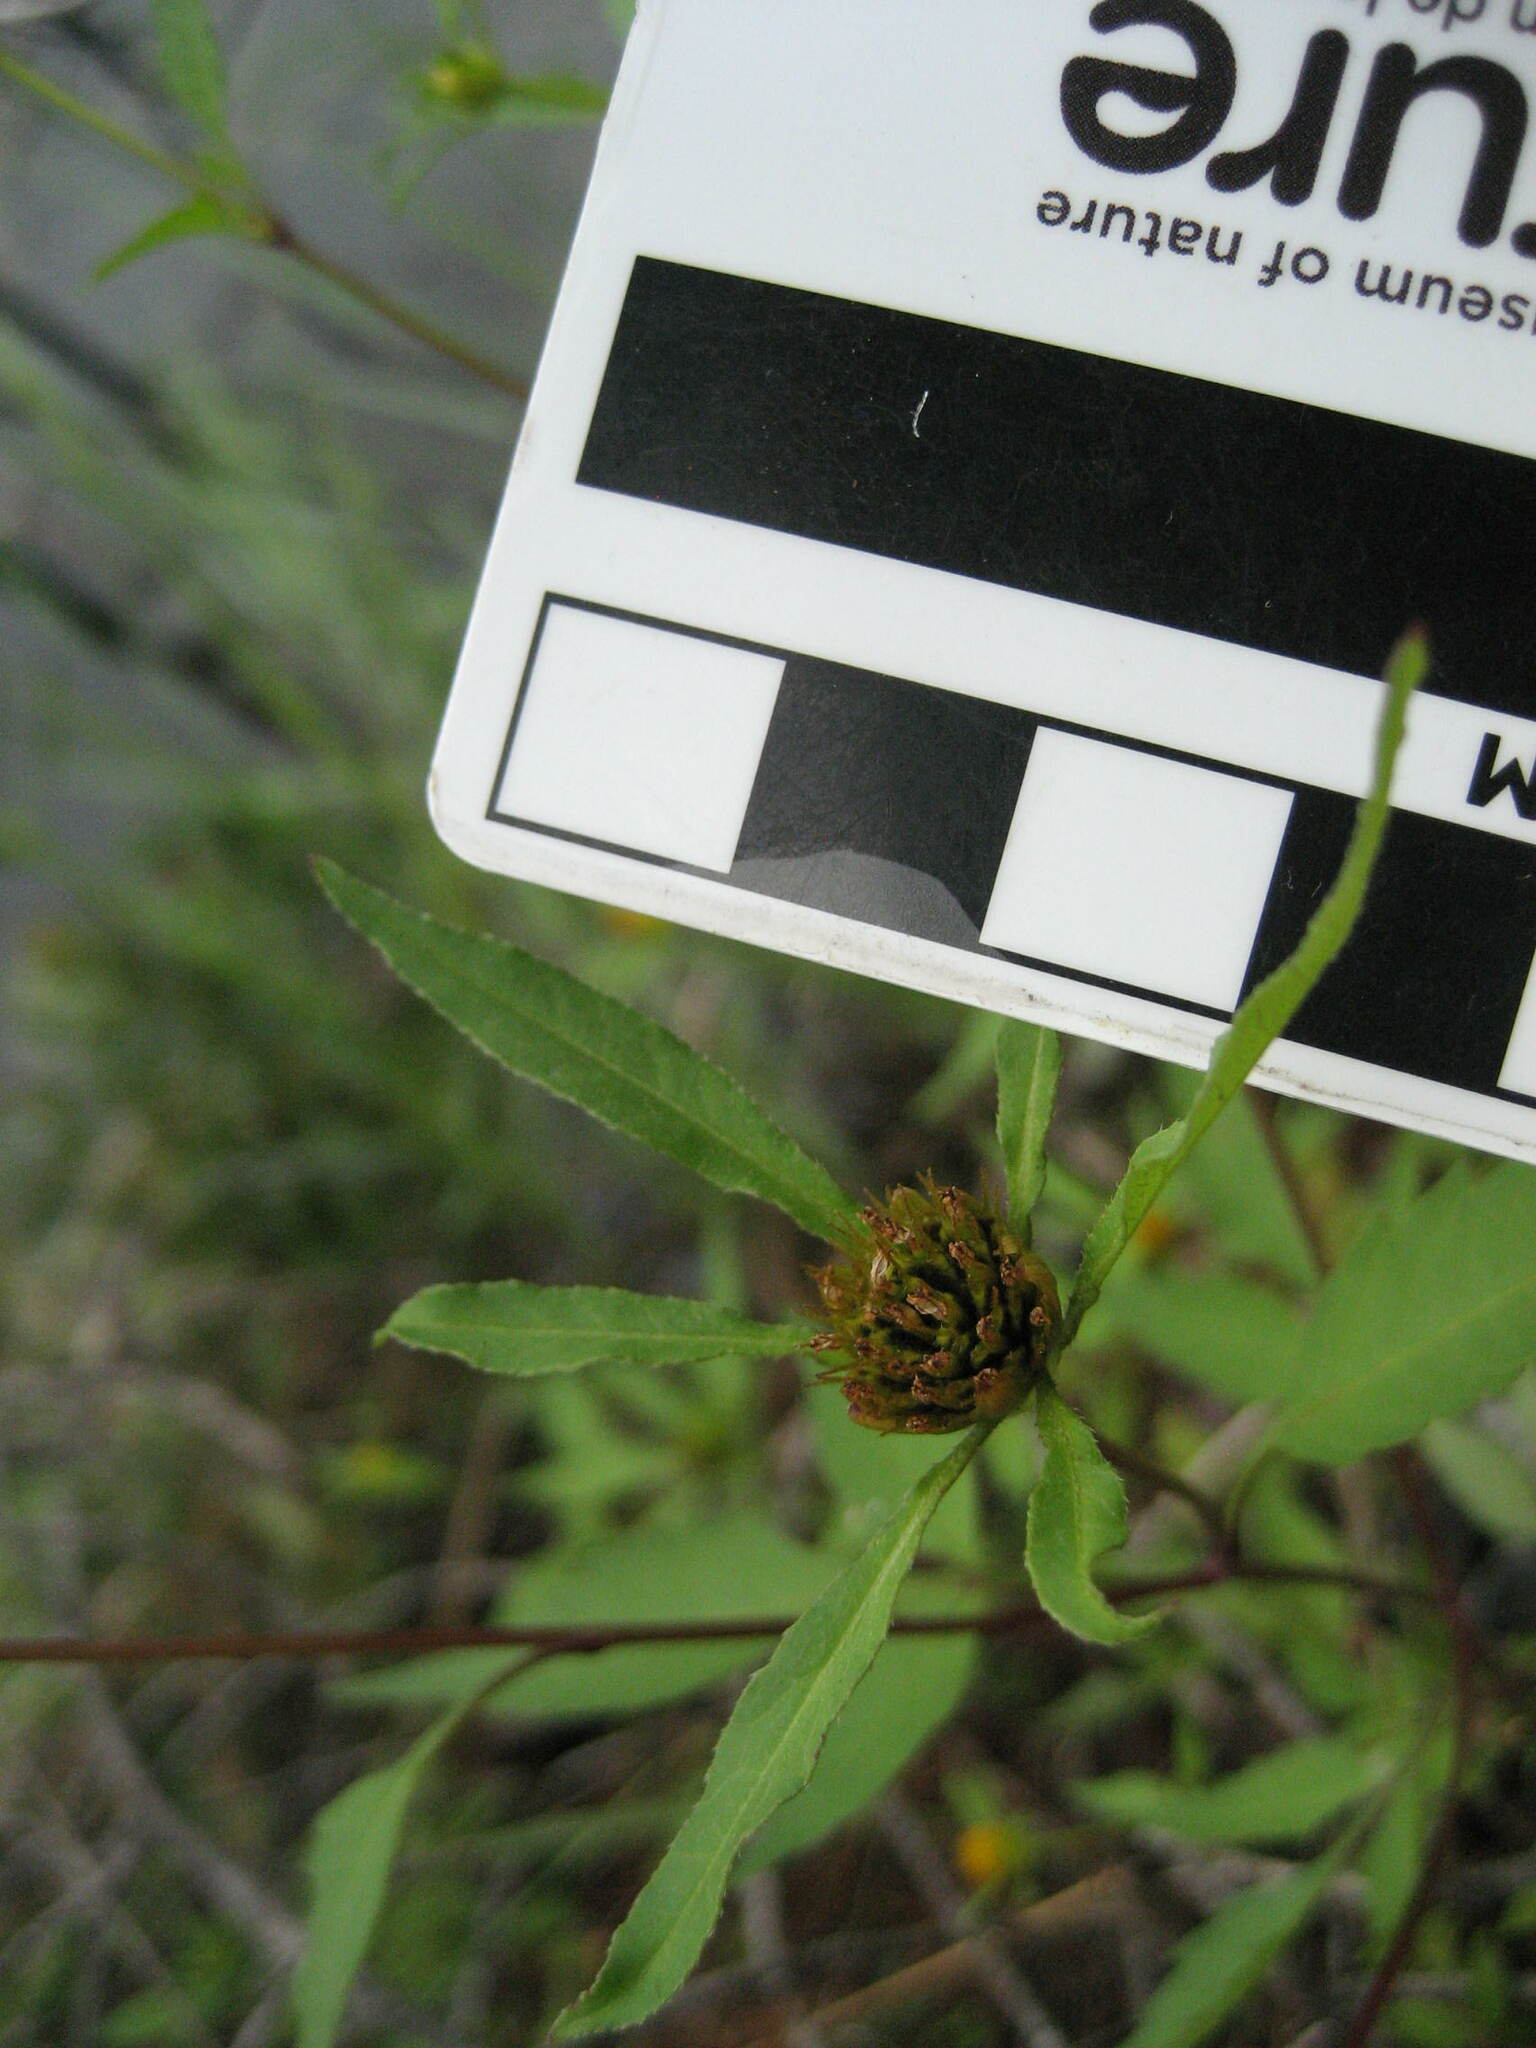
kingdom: Plantae
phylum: Tracheophyta
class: Magnoliopsida
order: Asterales
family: Asteraceae
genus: Bidens
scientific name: Bidens frondosa
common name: Beggarticks
